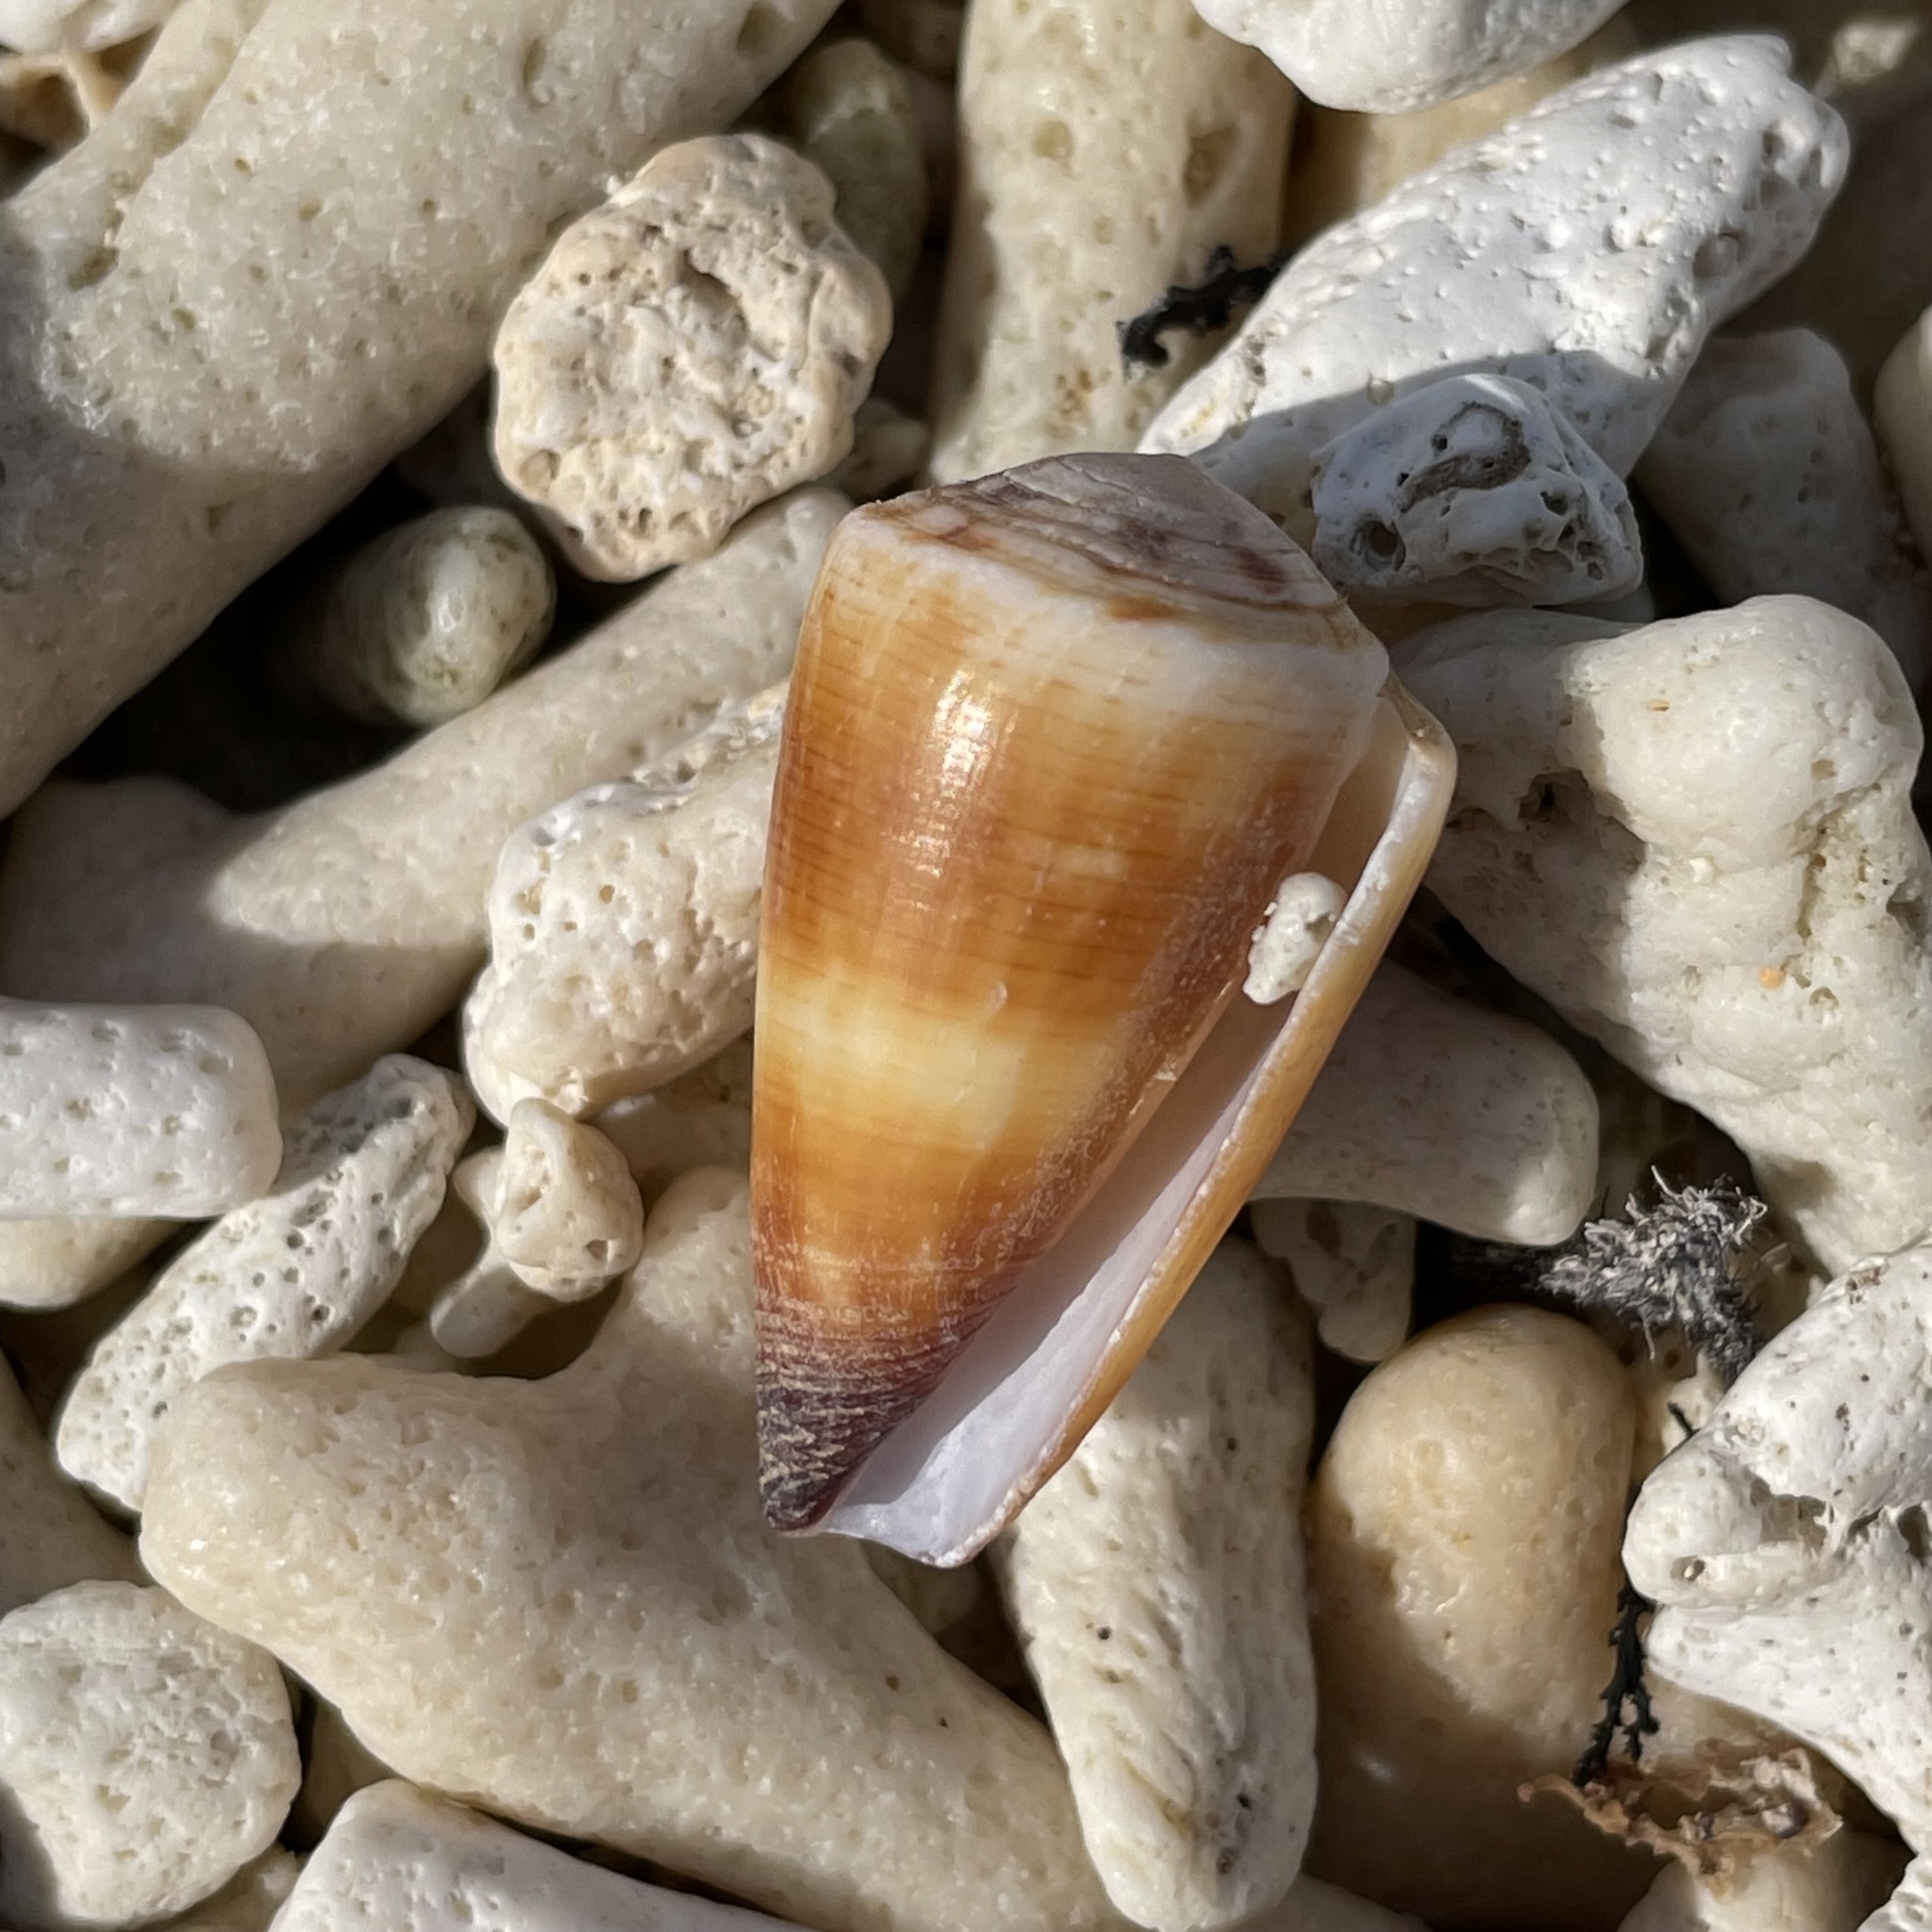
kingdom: Animalia
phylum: Mollusca
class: Gastropoda
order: Neogastropoda
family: Conidae
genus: Conus
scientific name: Conus planorbis
